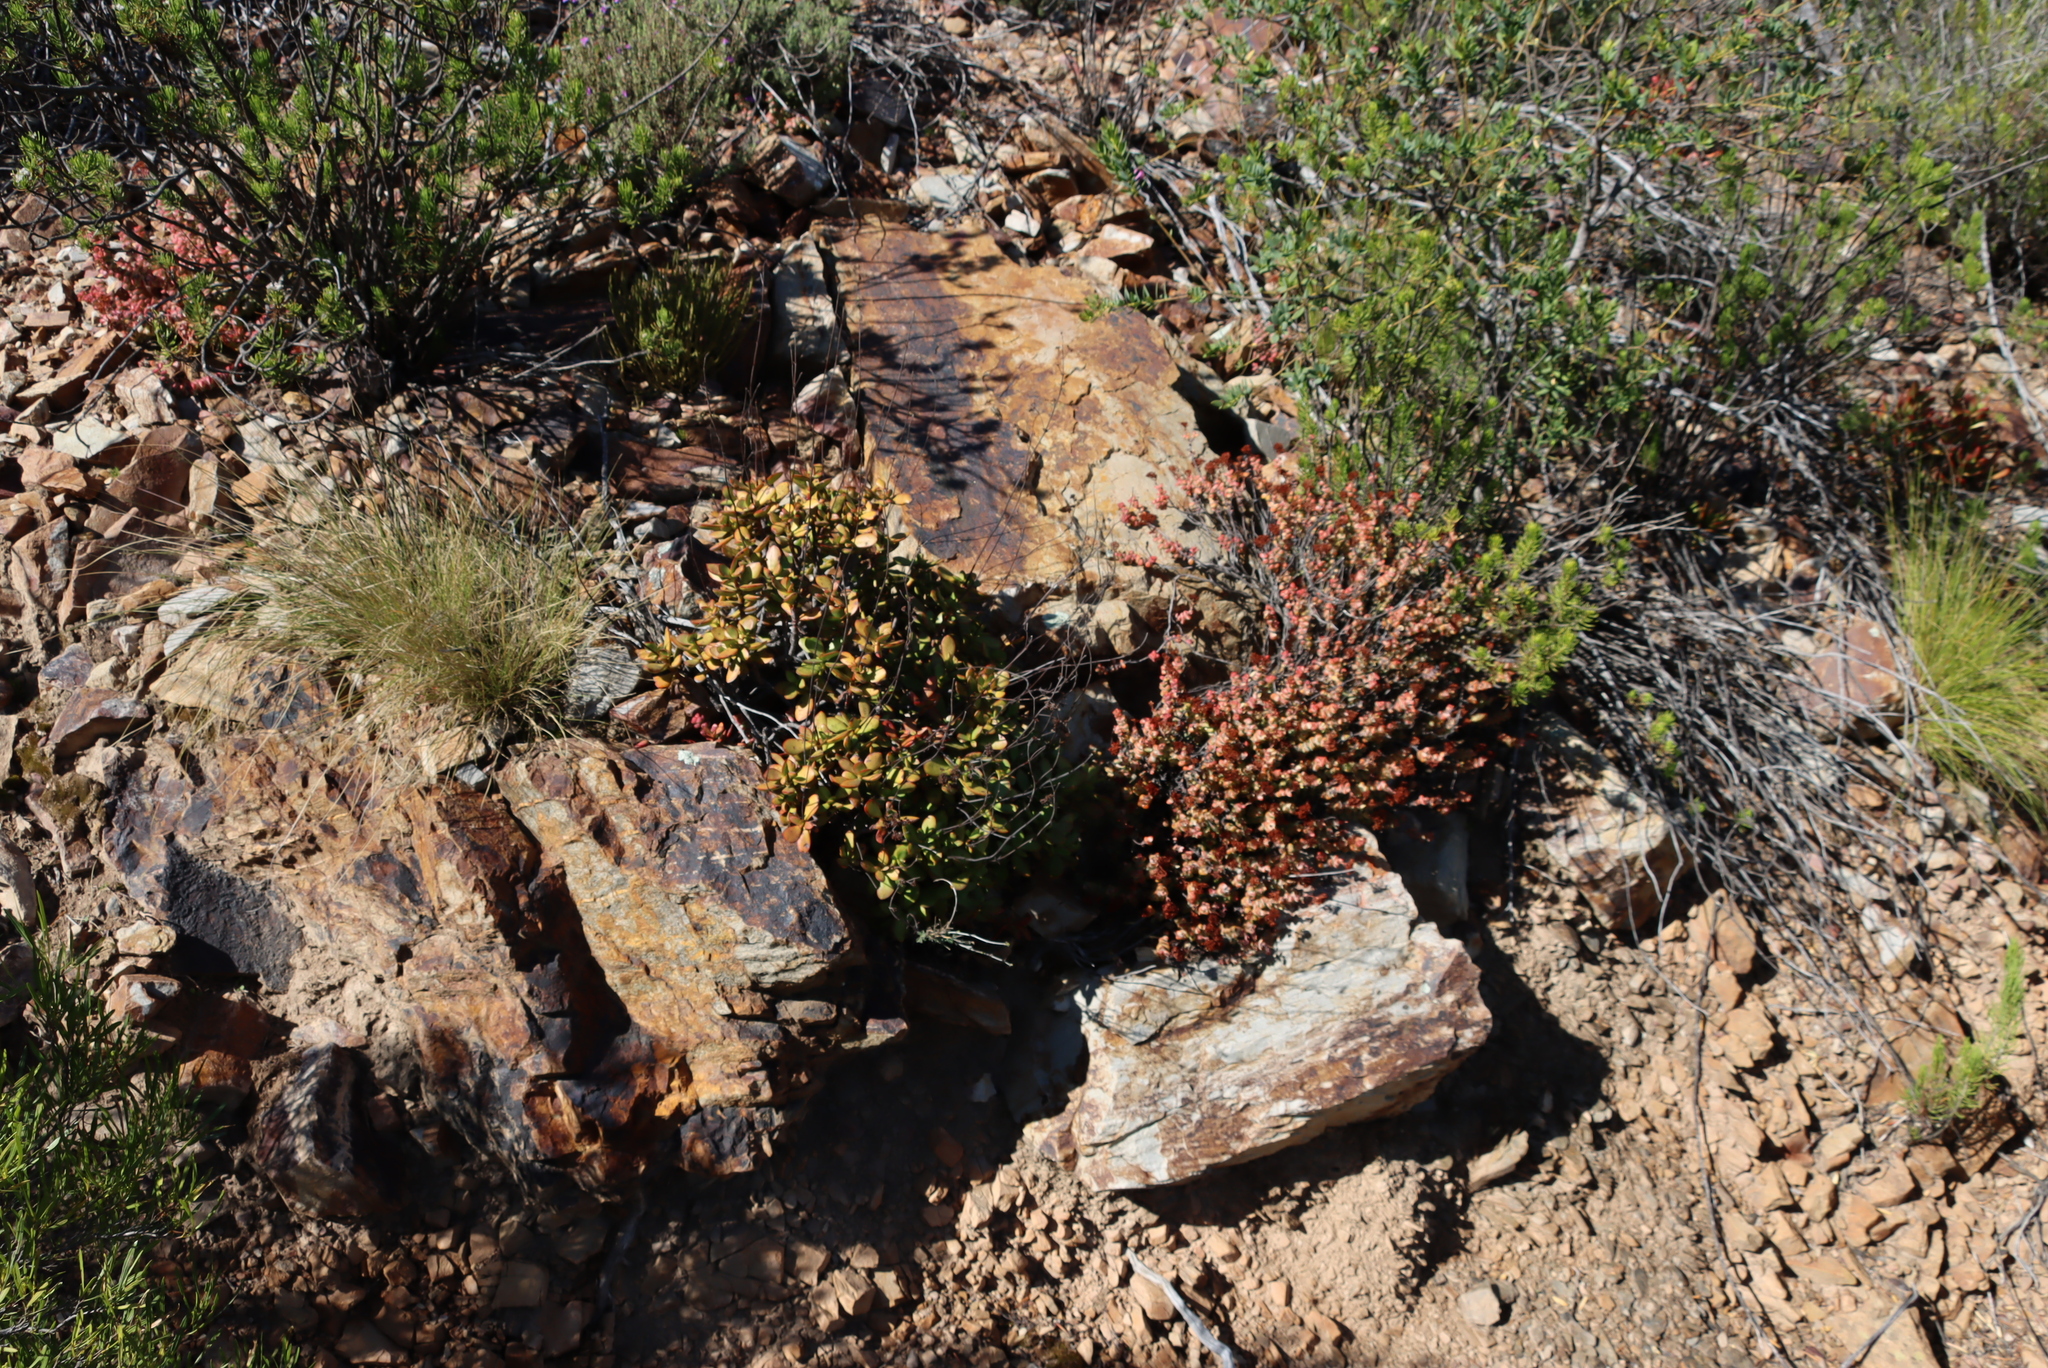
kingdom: Plantae
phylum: Tracheophyta
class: Magnoliopsida
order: Saxifragales
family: Crassulaceae
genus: Crassula
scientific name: Crassula rupestris
